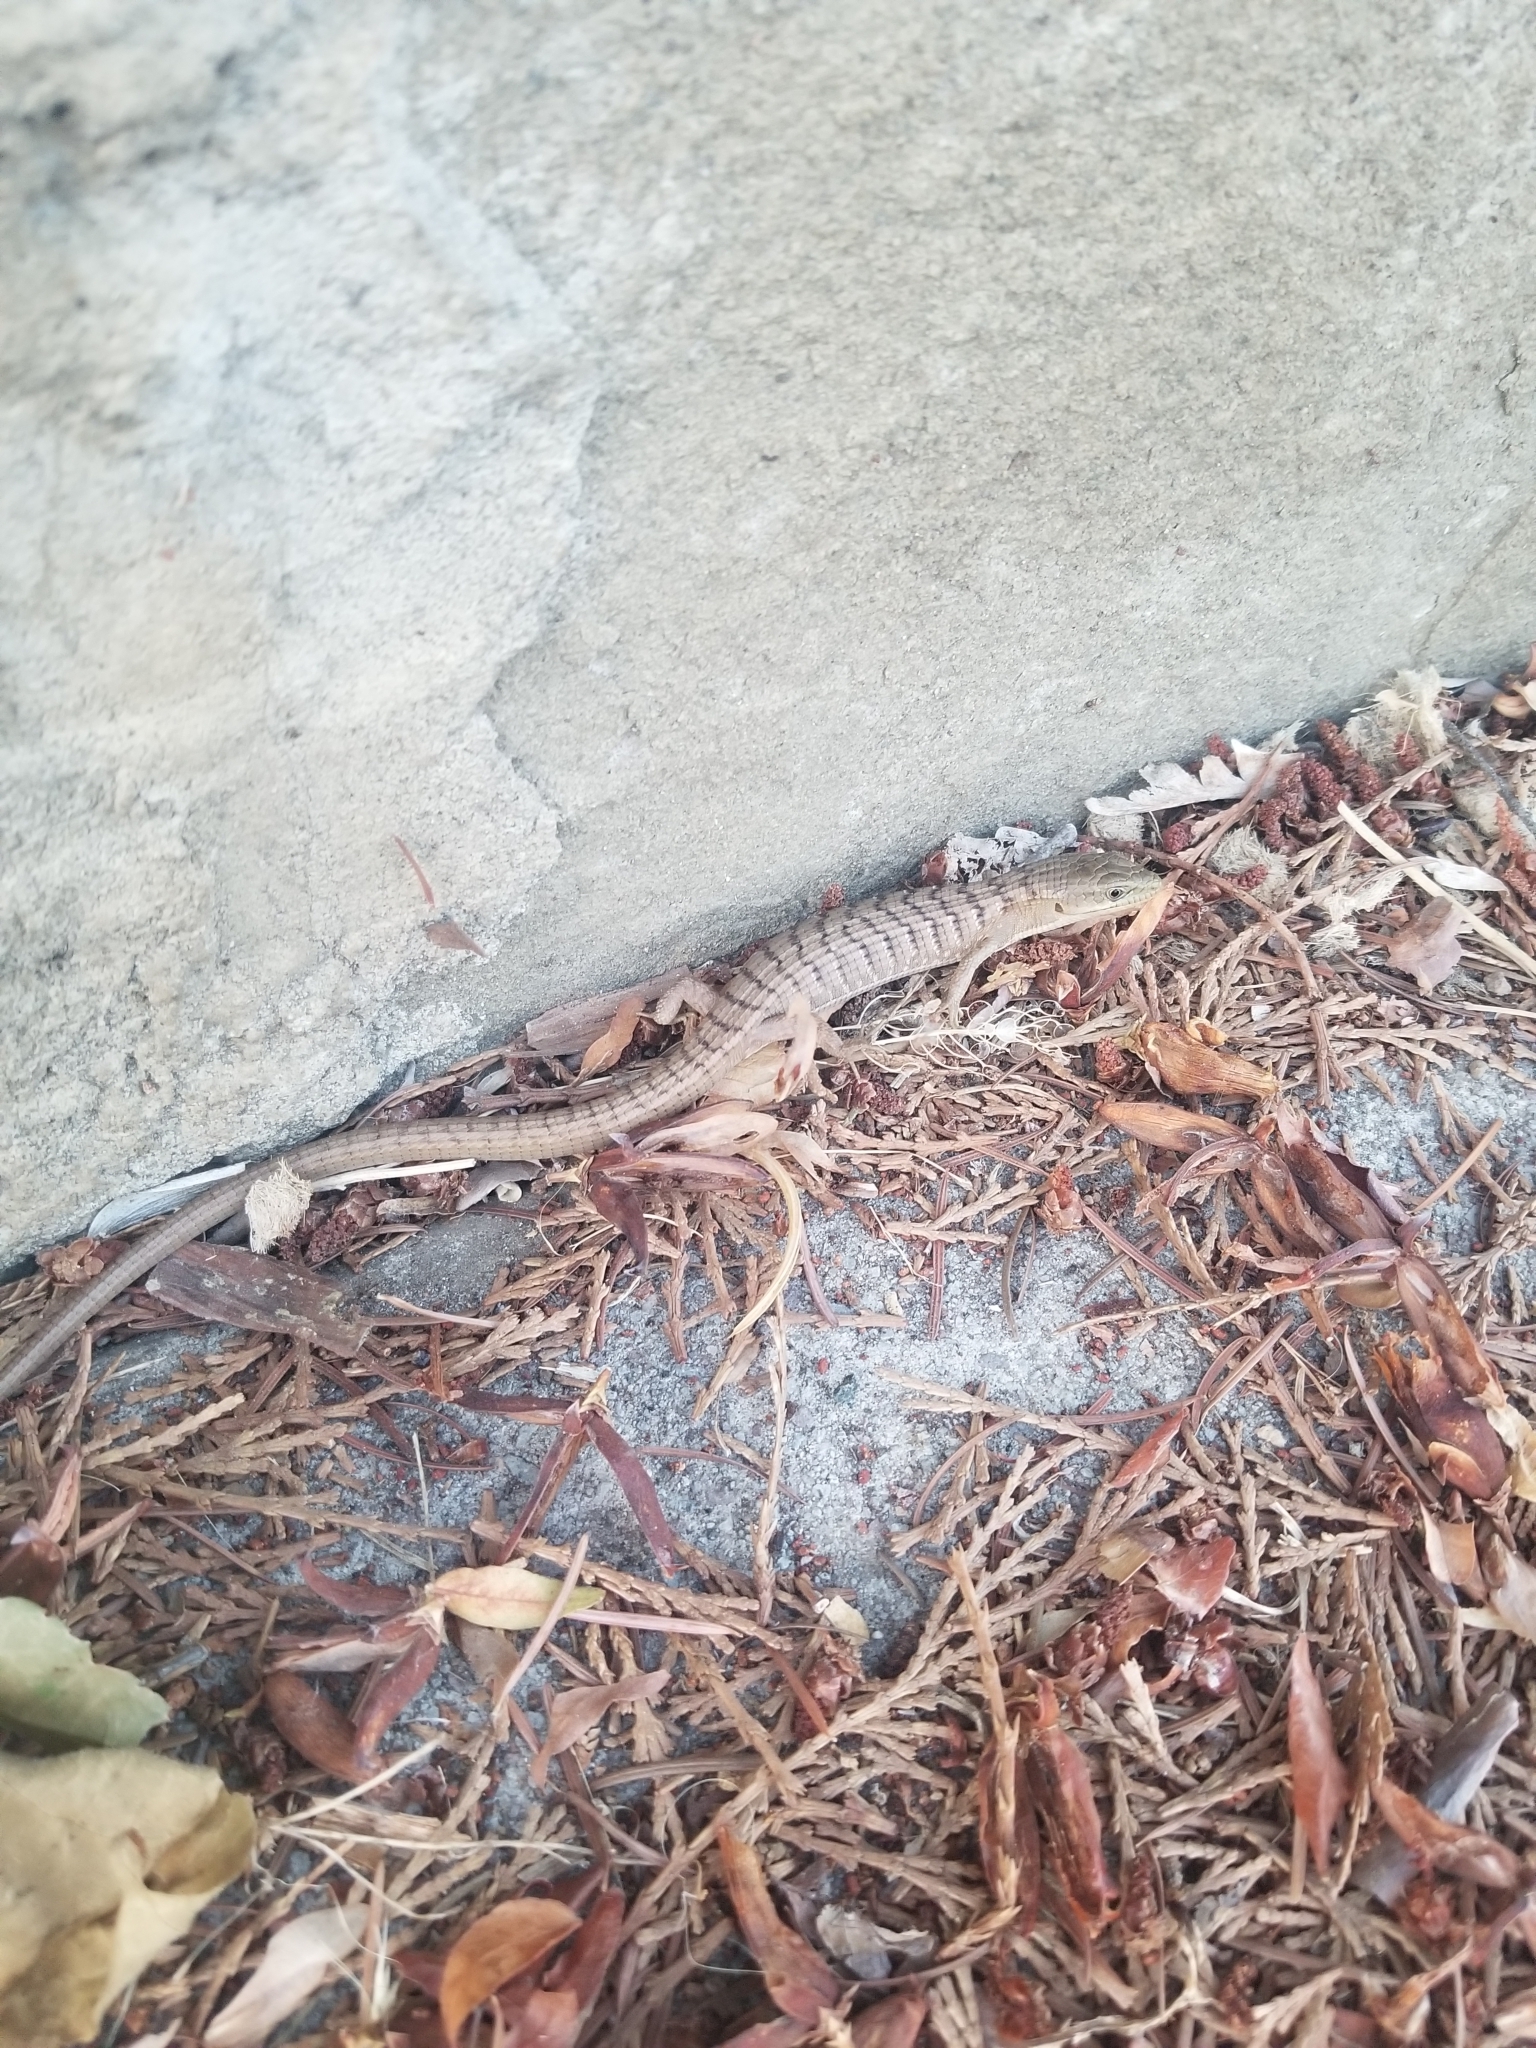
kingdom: Animalia
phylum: Chordata
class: Squamata
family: Anguidae
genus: Elgaria
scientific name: Elgaria multicarinata
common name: Southern alligator lizard
